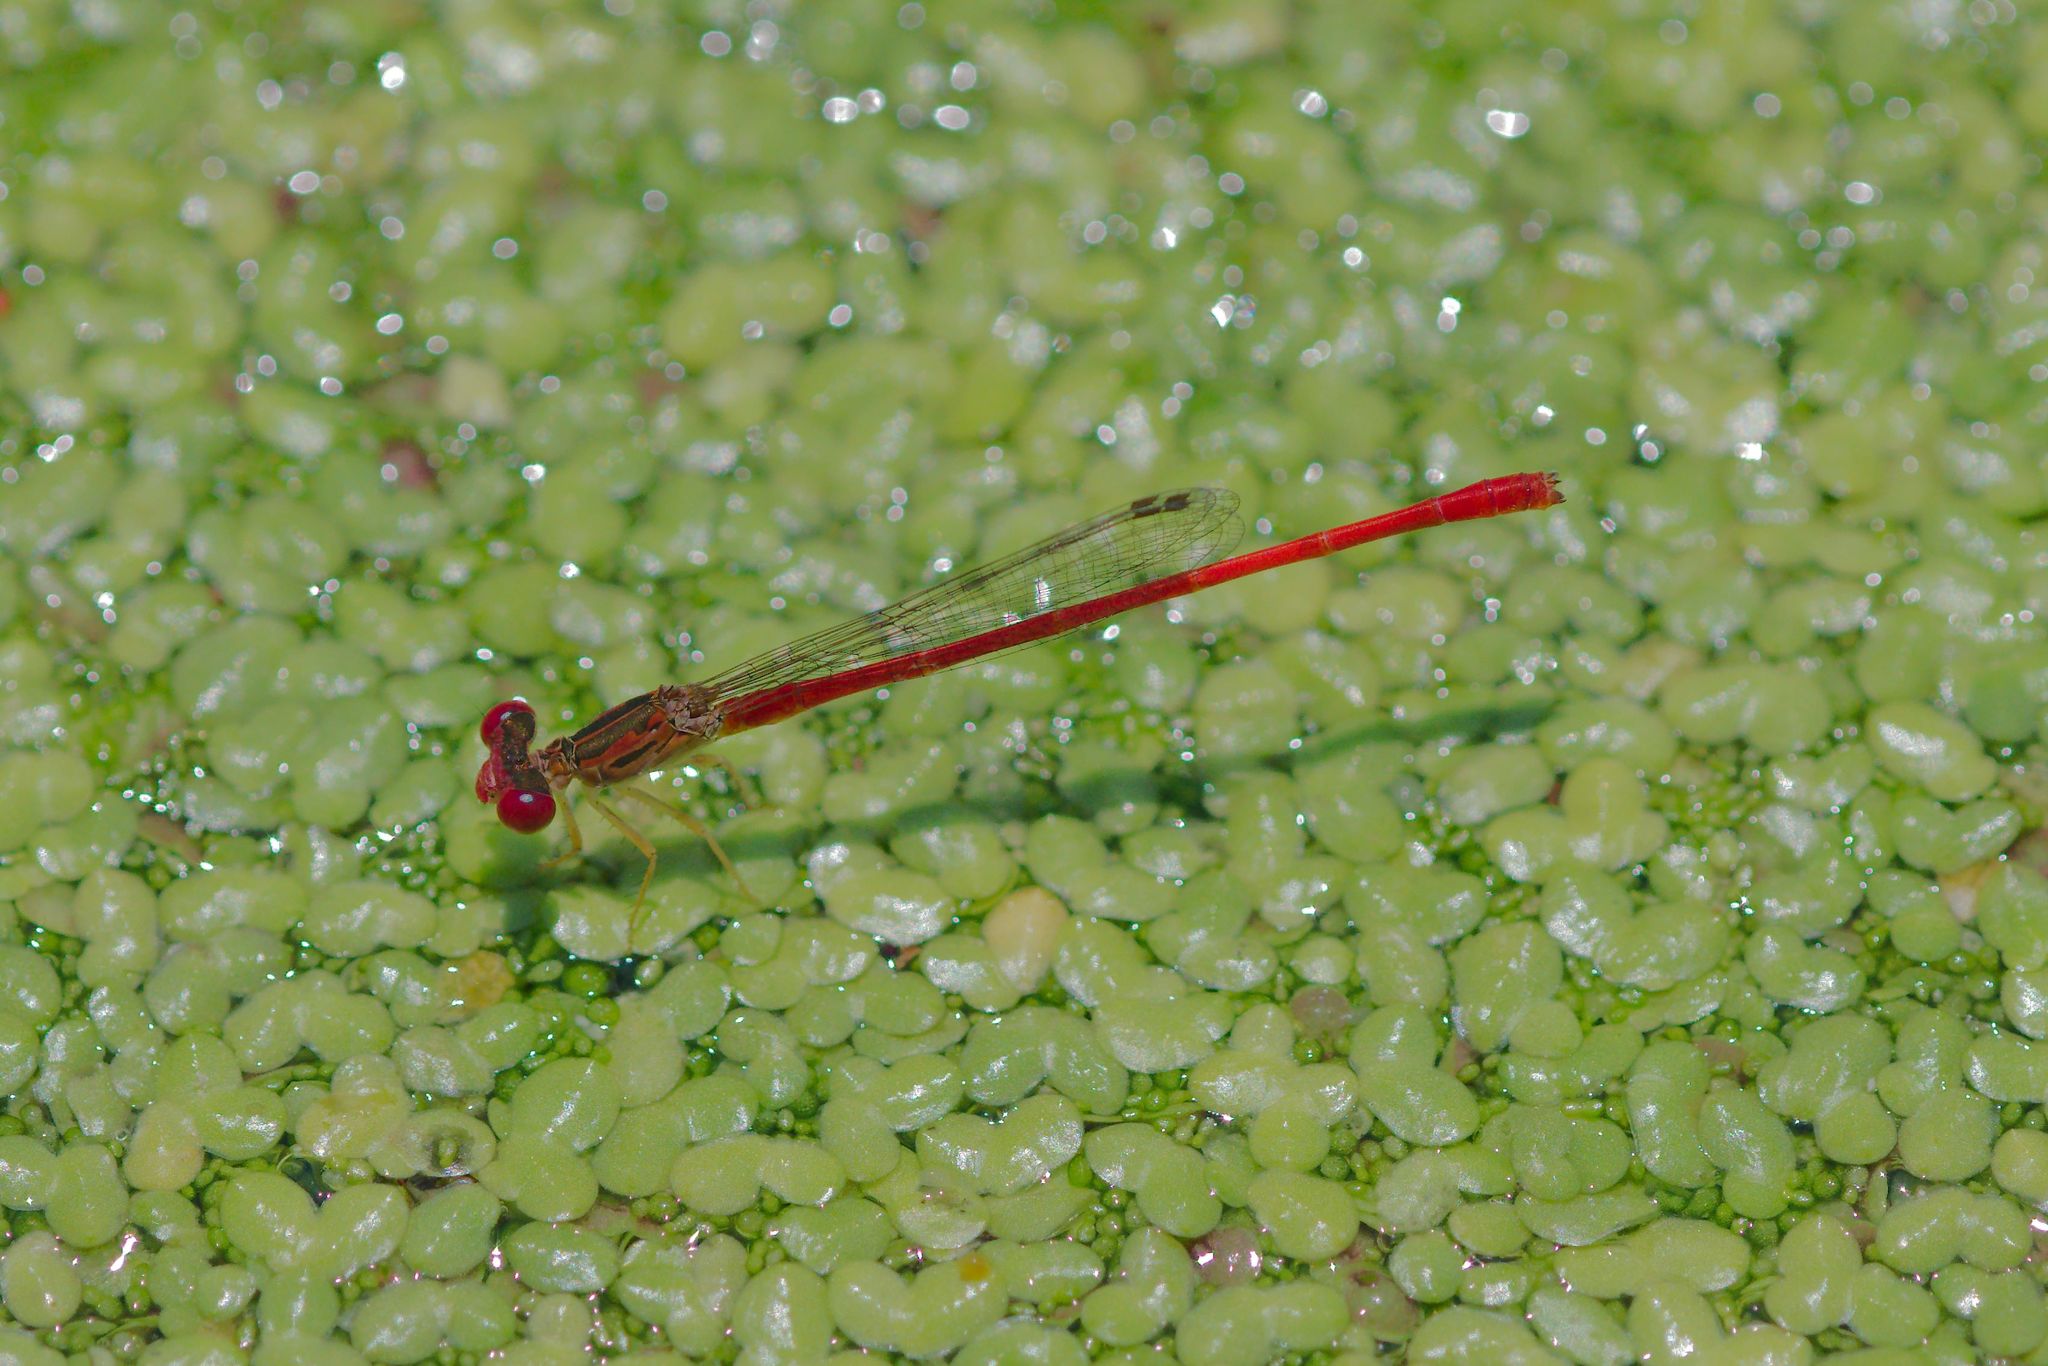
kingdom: Animalia
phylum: Arthropoda
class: Insecta
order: Odonata
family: Coenagrionidae
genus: Telebasis
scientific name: Telebasis byersi
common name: Duckweed firetail
